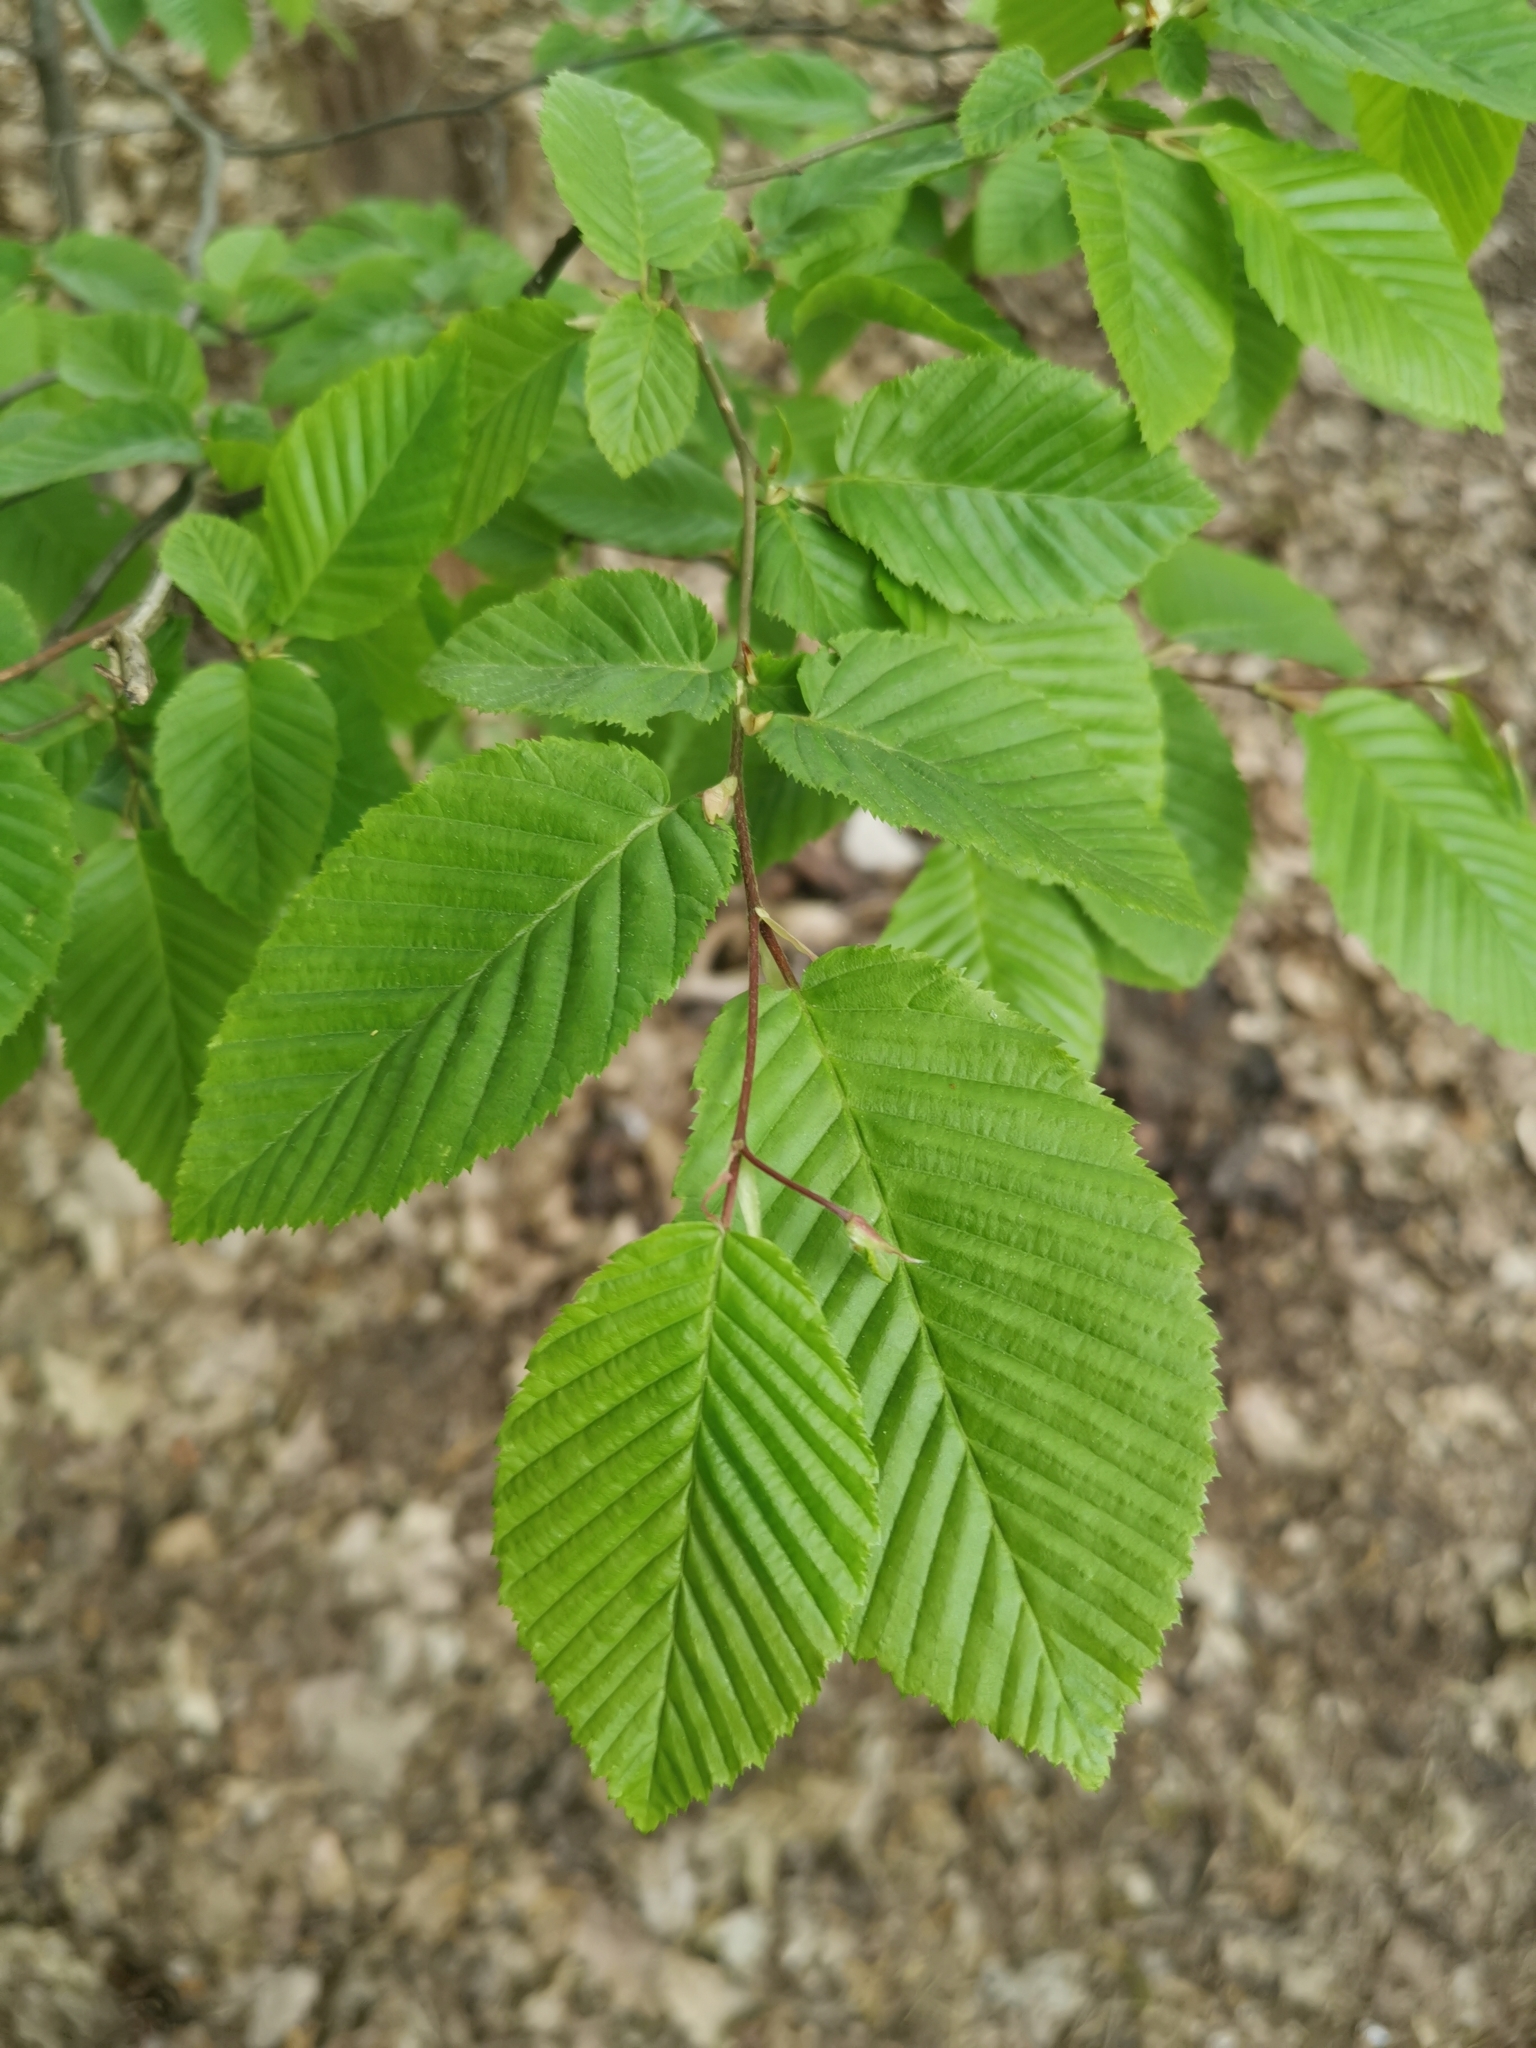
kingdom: Plantae
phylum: Tracheophyta
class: Magnoliopsida
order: Fagales
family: Betulaceae
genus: Carpinus
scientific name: Carpinus betulus
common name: Hornbeam
